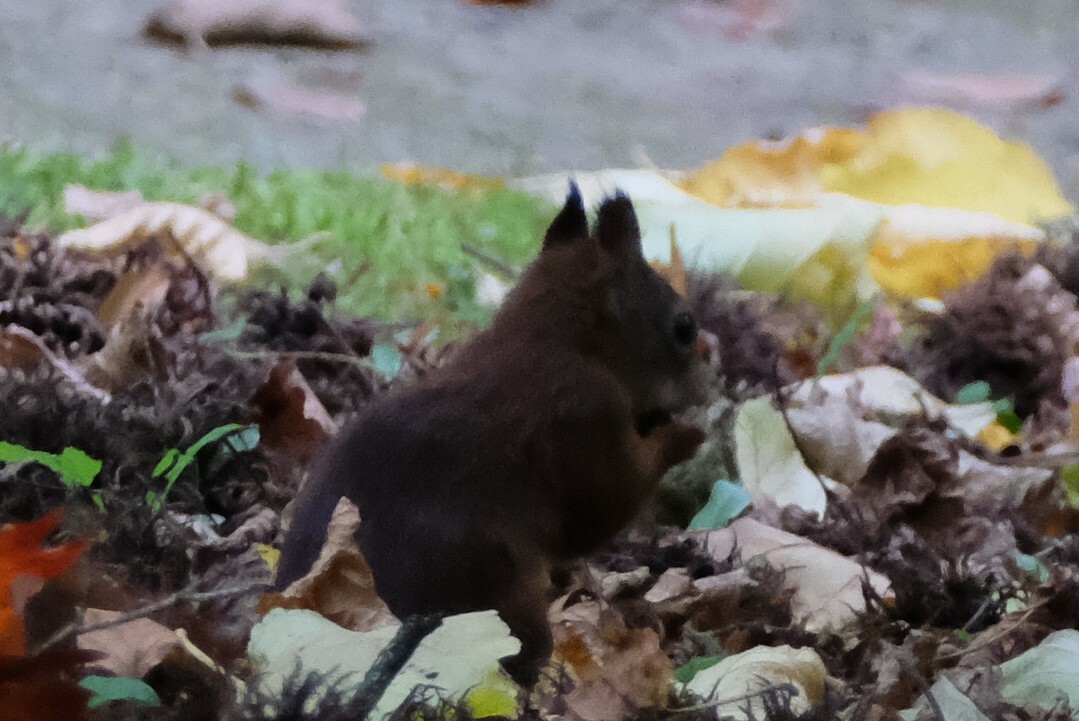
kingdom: Animalia
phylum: Chordata
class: Mammalia
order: Rodentia
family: Sciuridae
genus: Sciurus
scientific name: Sciurus vulgaris
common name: Eurasian red squirrel
